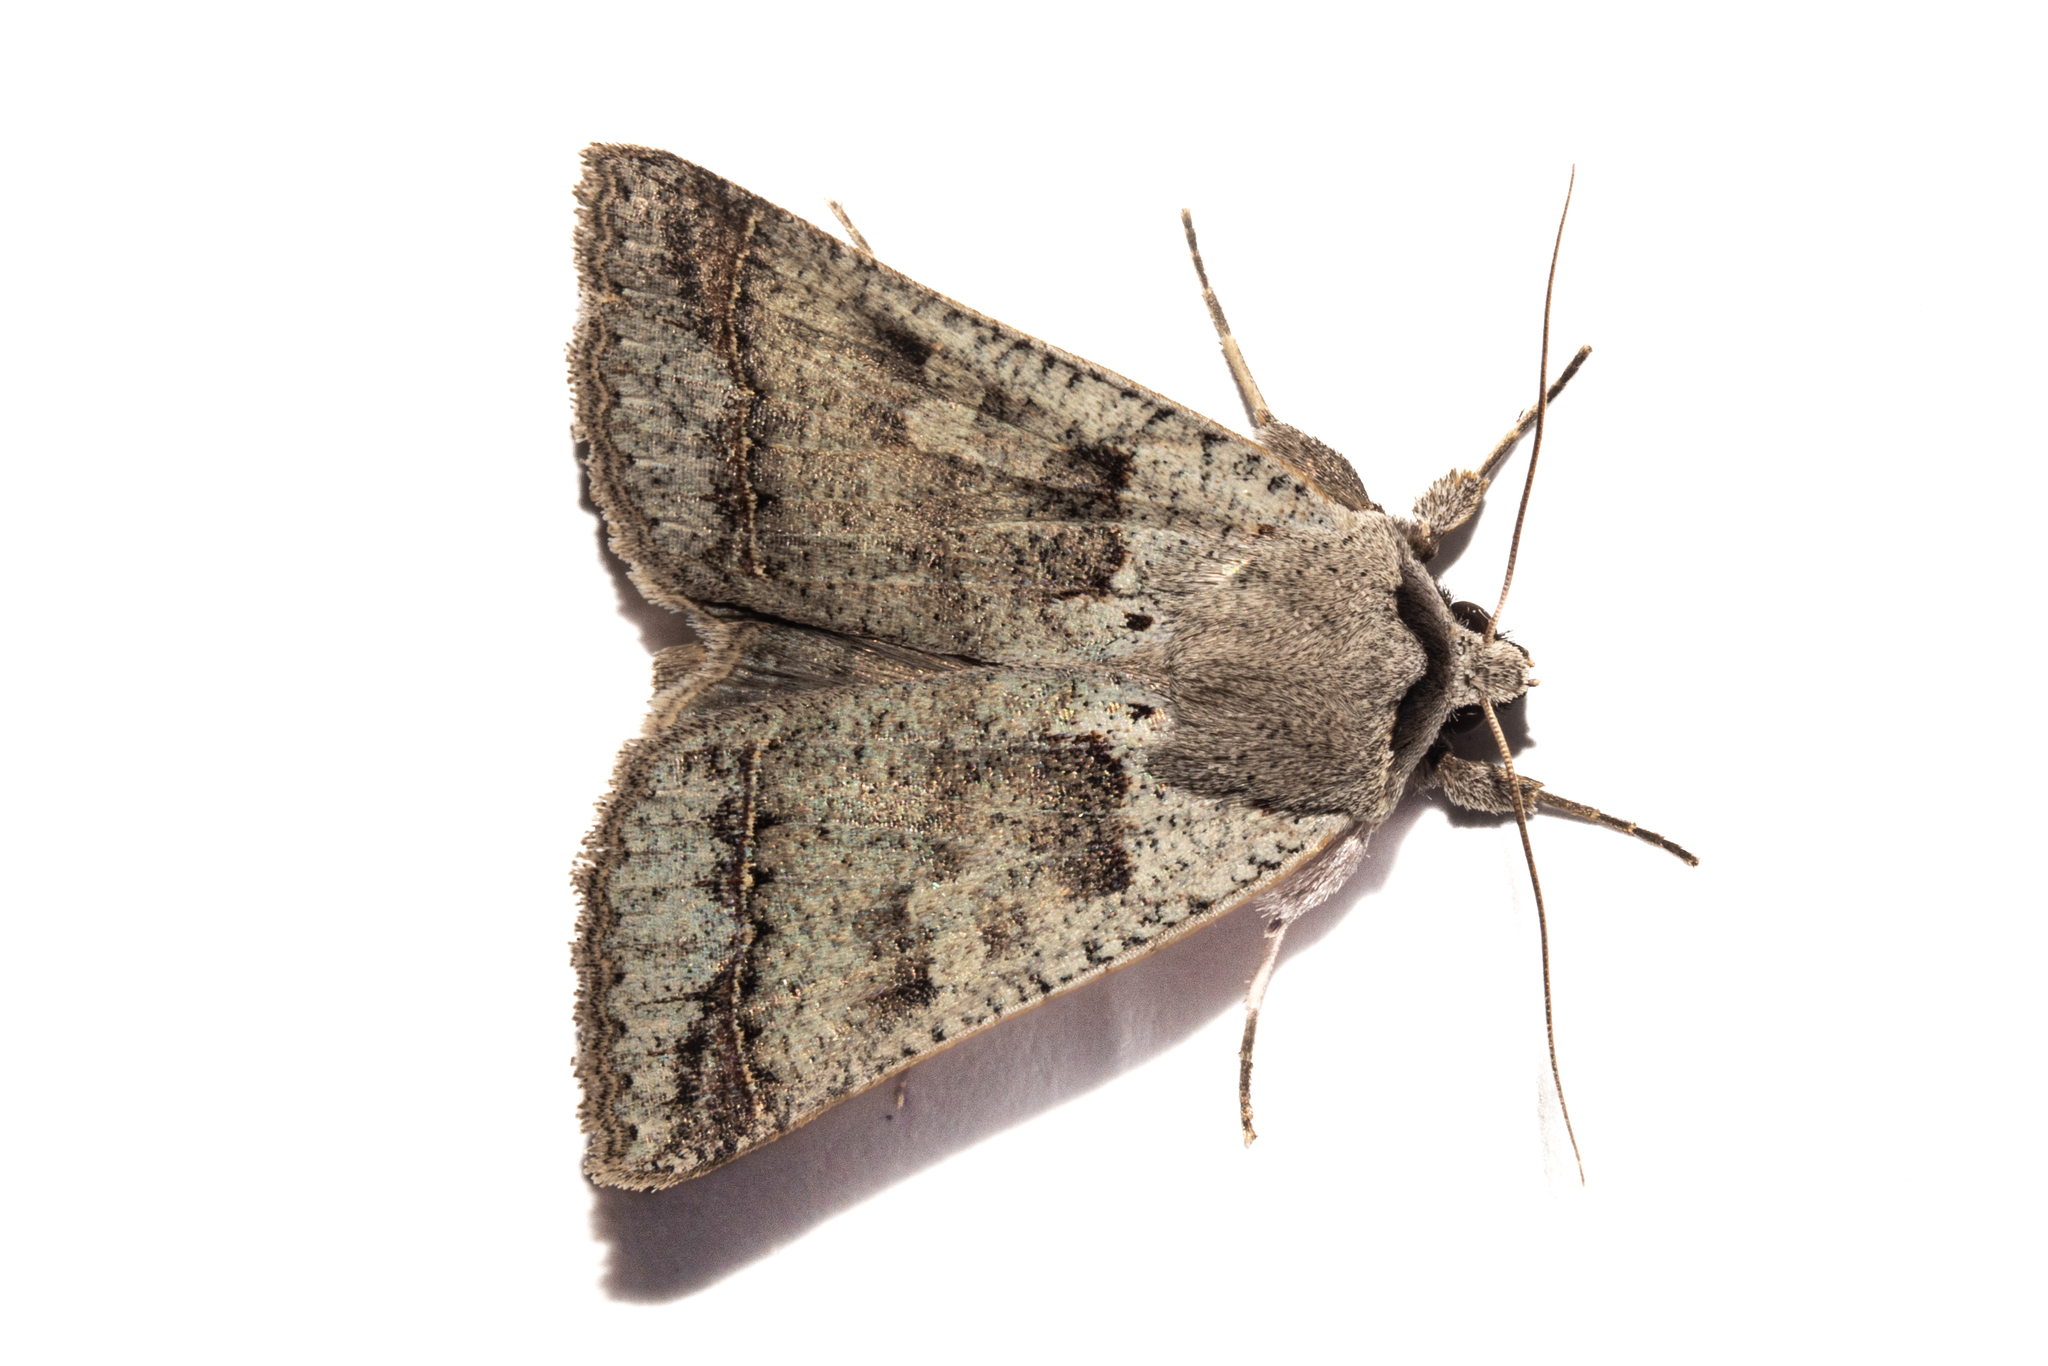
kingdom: Animalia
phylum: Arthropoda
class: Insecta
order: Lepidoptera
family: Erebidae
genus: Pantydia
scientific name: Pantydia sparsa
